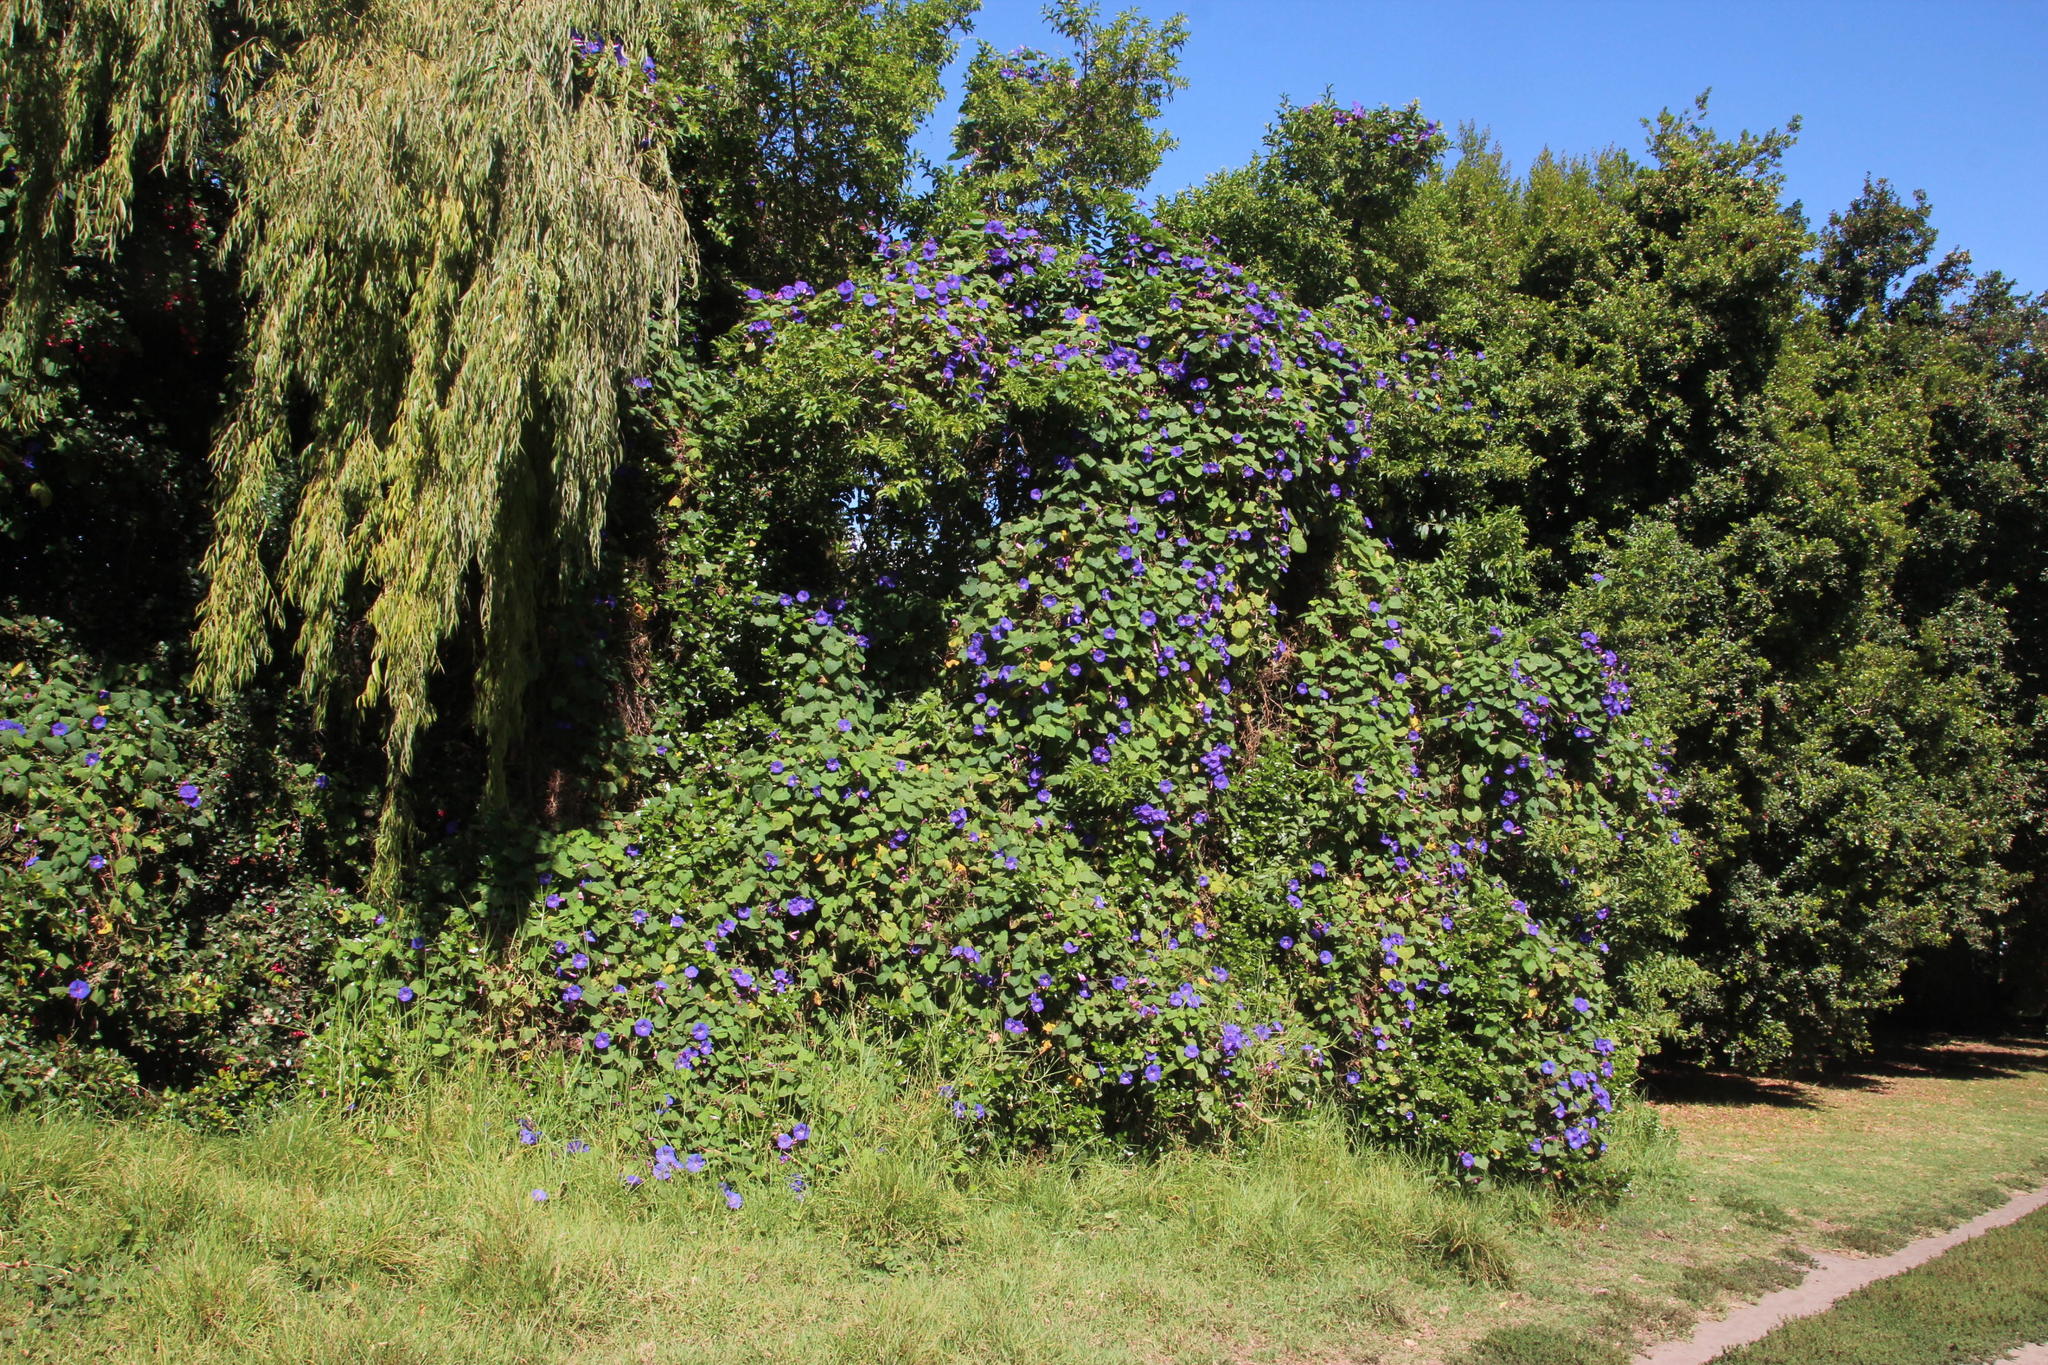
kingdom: Plantae
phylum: Tracheophyta
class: Magnoliopsida
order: Solanales
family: Convolvulaceae
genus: Ipomoea
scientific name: Ipomoea indica
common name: Blue dawnflower
